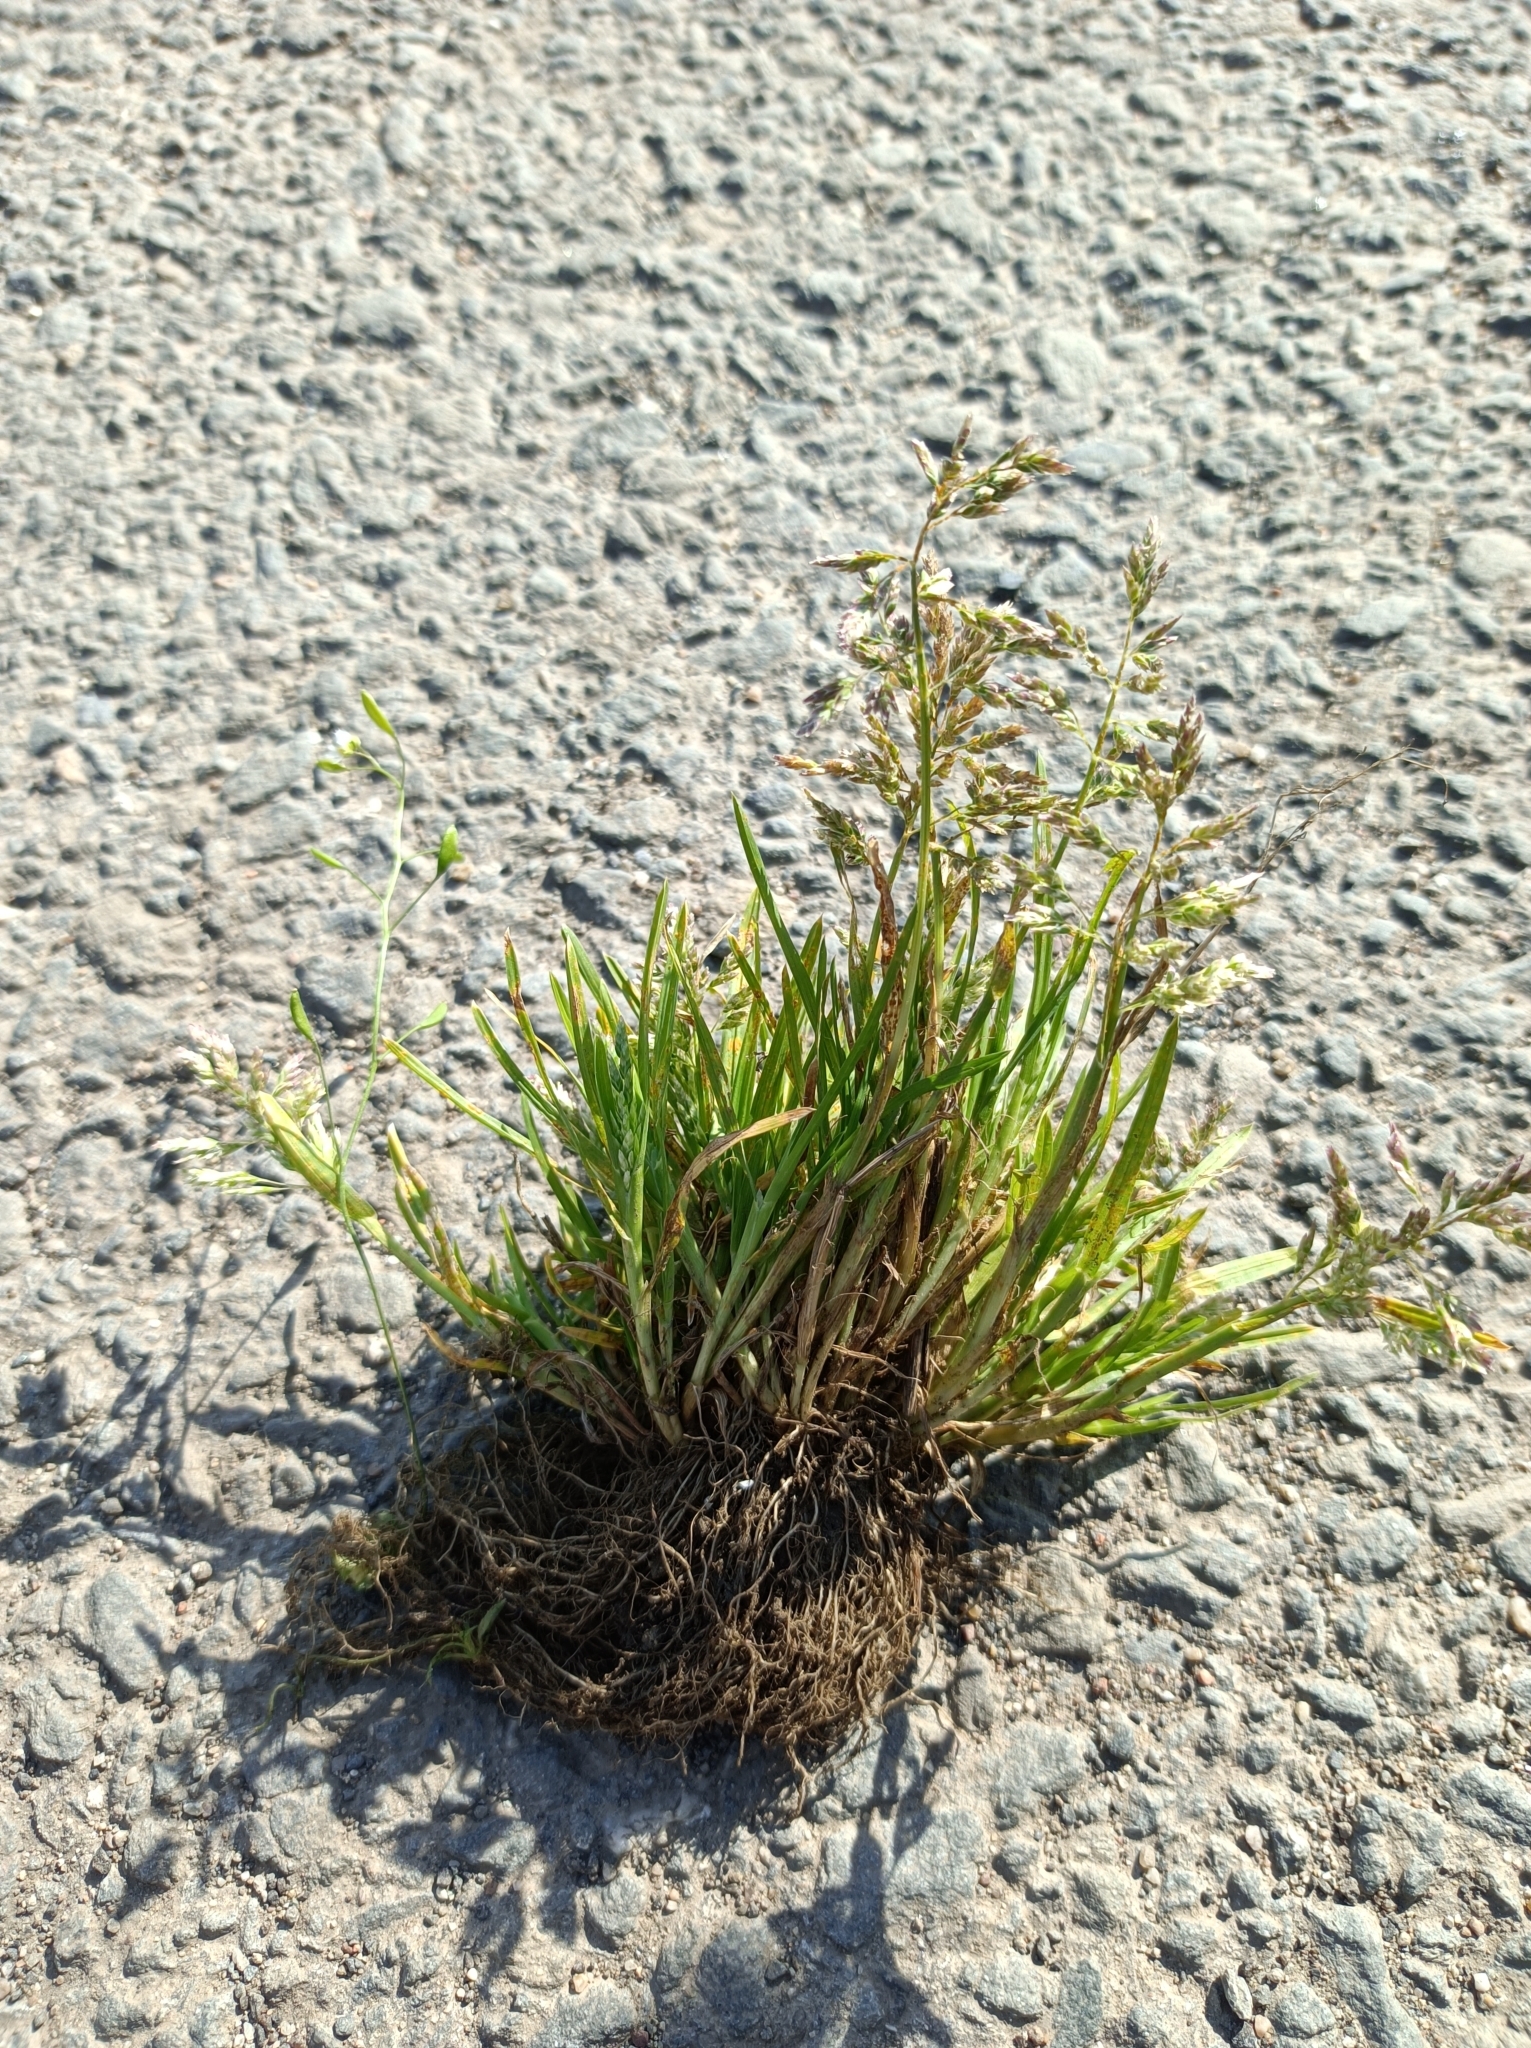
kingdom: Plantae
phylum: Tracheophyta
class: Liliopsida
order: Poales
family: Poaceae
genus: Poa
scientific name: Poa annua
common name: Annual bluegrass
